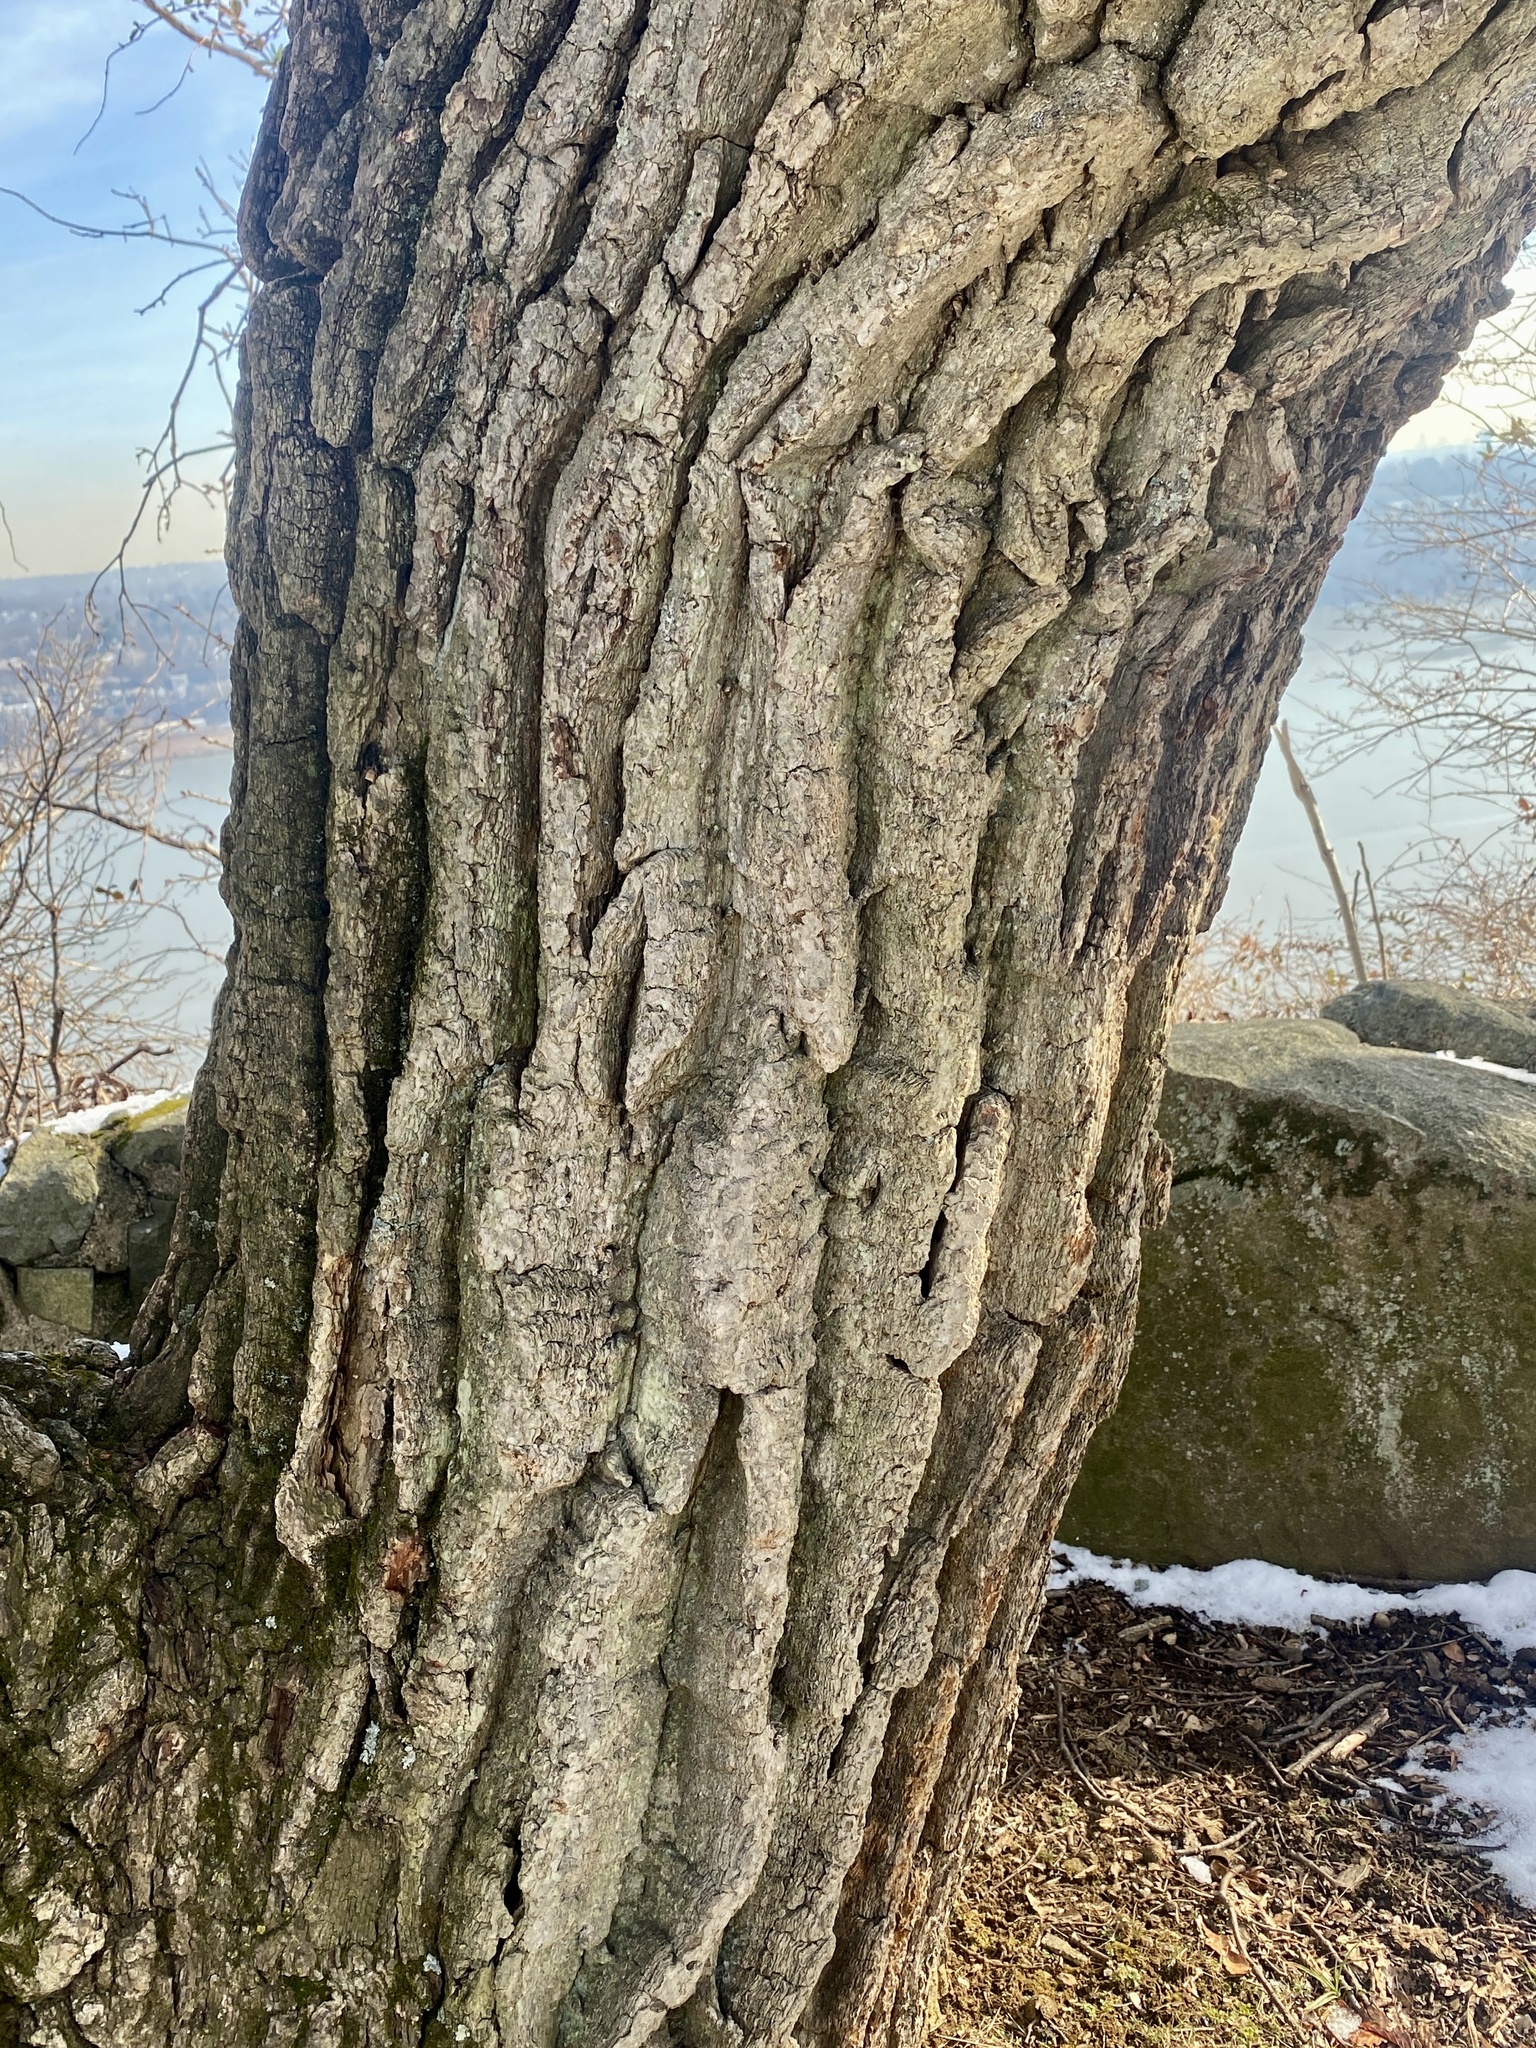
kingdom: Plantae
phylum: Tracheophyta
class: Magnoliopsida
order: Fagales
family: Fagaceae
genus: Quercus
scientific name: Quercus montana
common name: Chestnut oak
